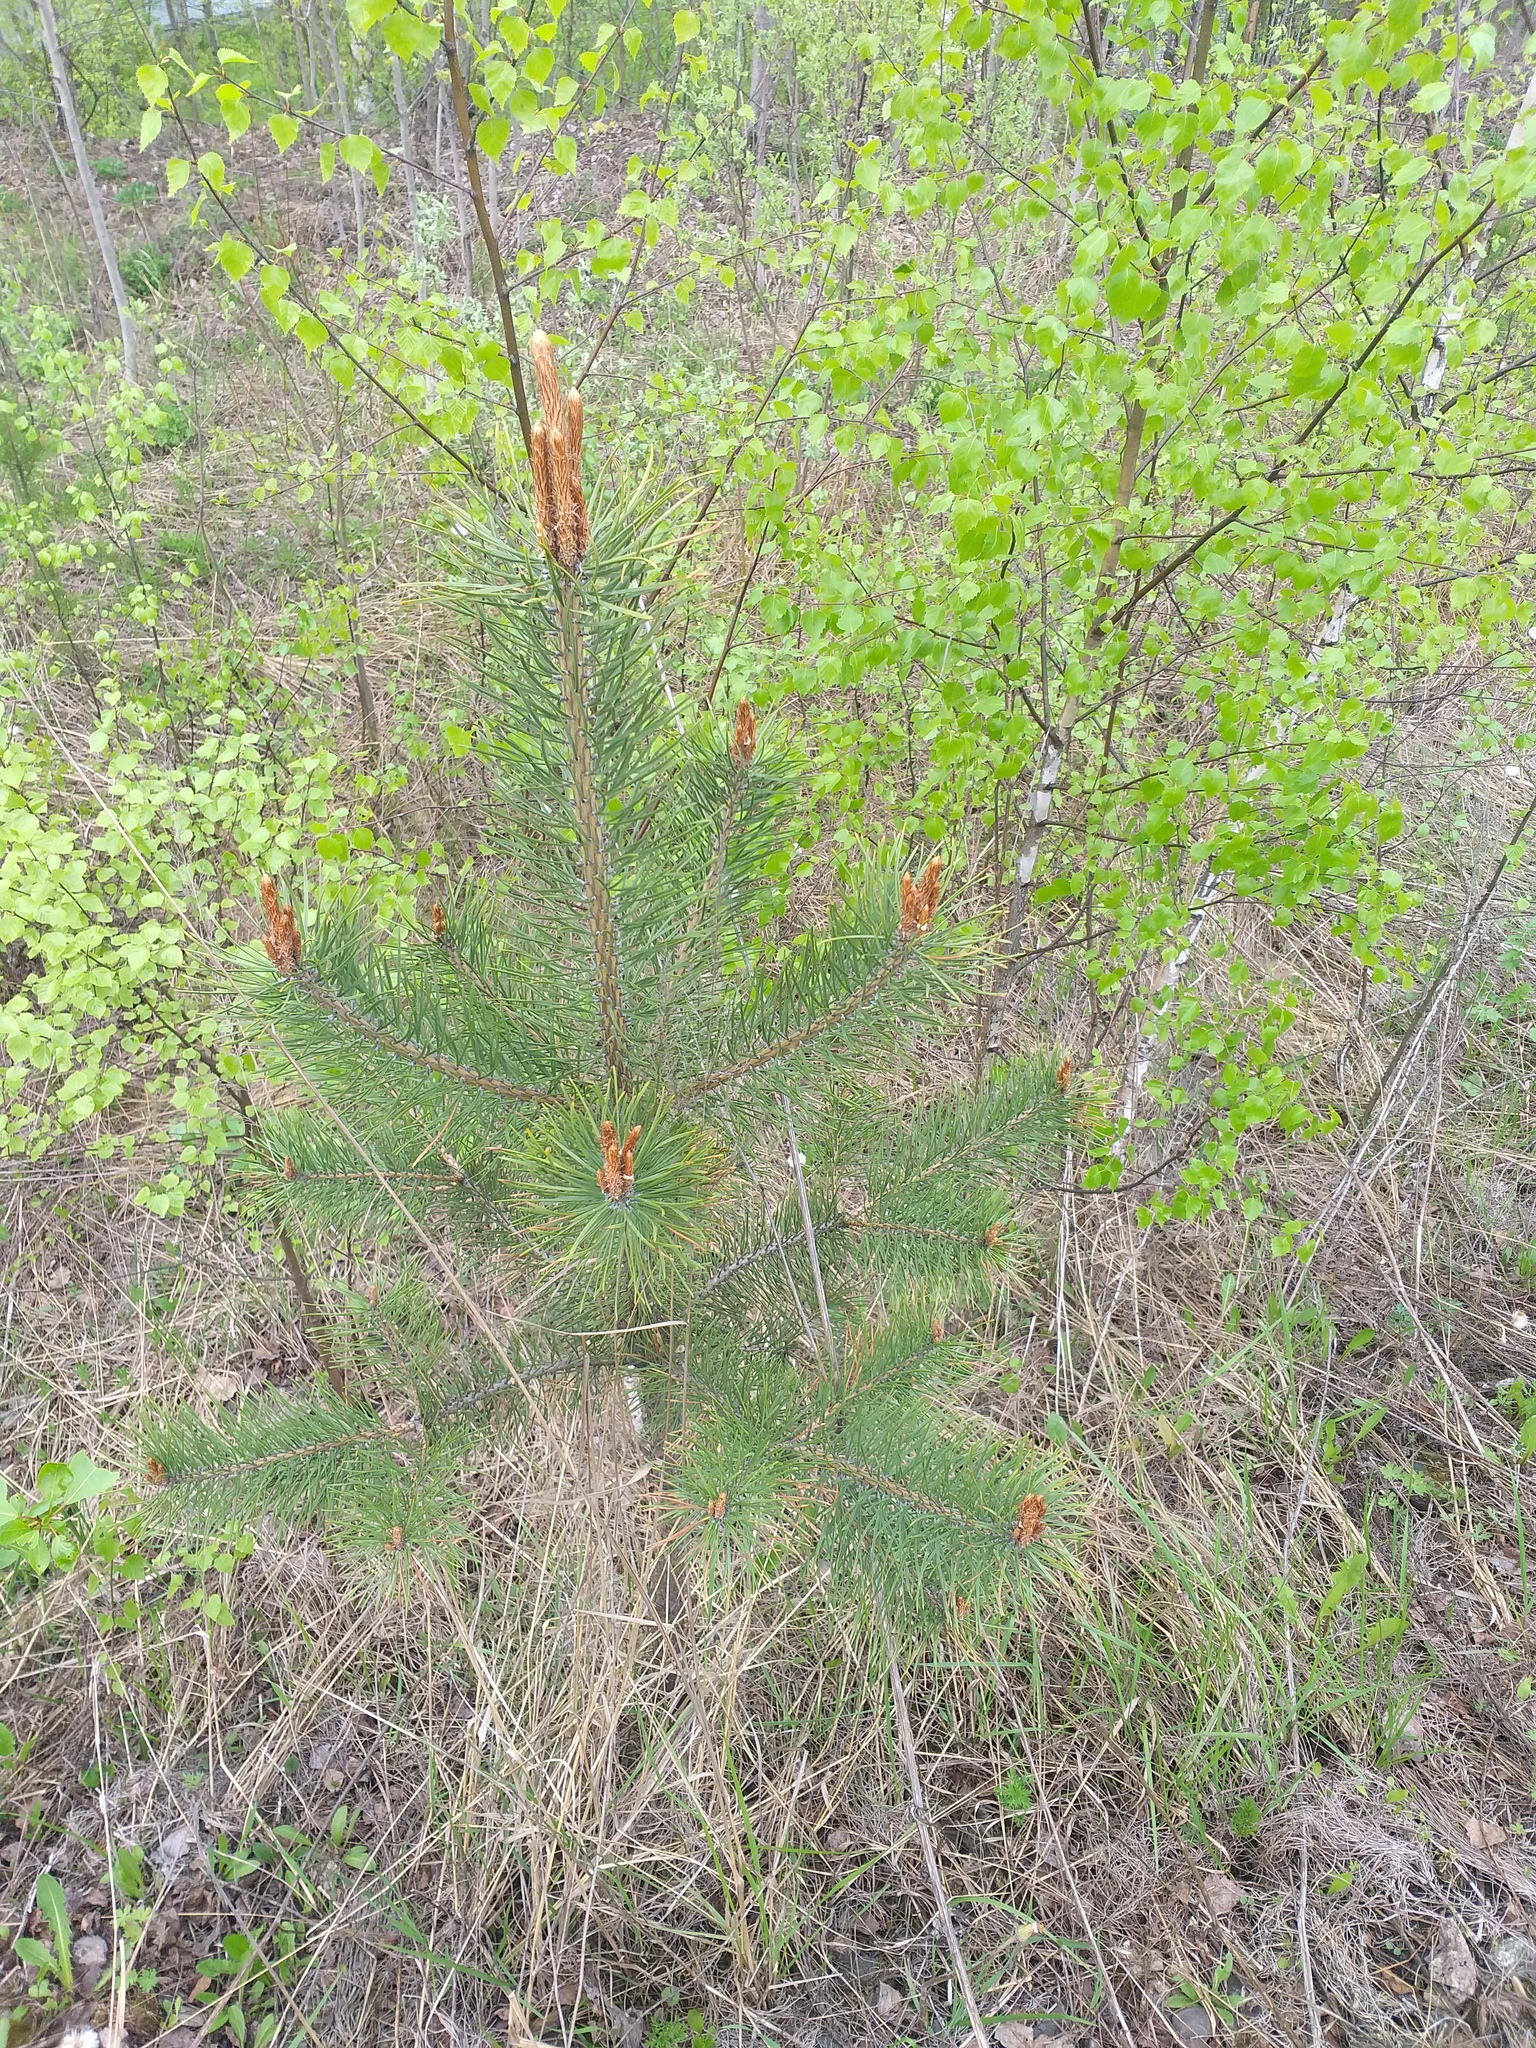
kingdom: Plantae
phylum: Tracheophyta
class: Pinopsida
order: Pinales
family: Pinaceae
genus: Pinus
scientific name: Pinus sylvestris
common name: Scots pine
